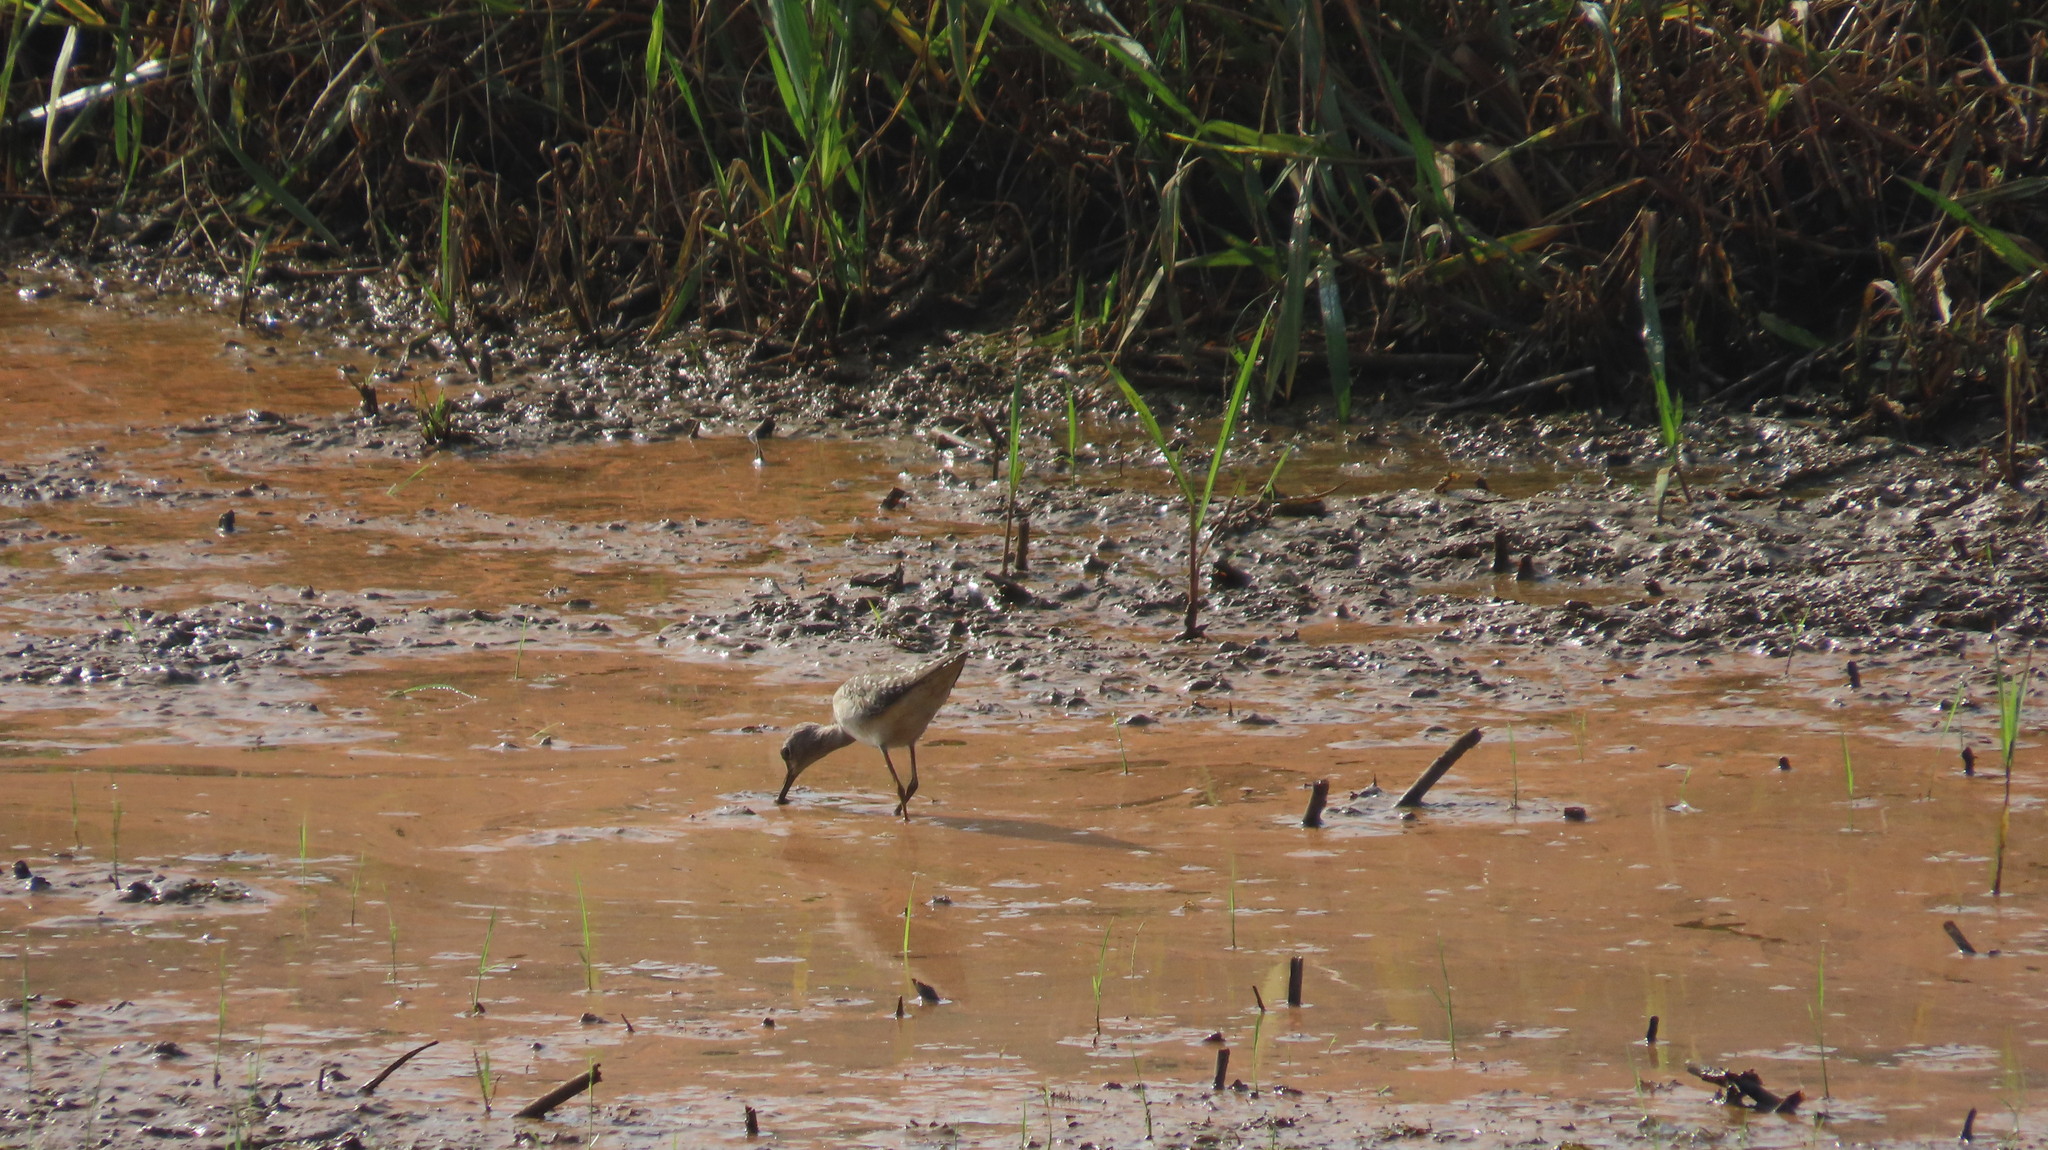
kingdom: Animalia
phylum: Chordata
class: Aves
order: Charadriiformes
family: Scolopacidae
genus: Tringa
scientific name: Tringa glareola
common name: Wood sandpiper
